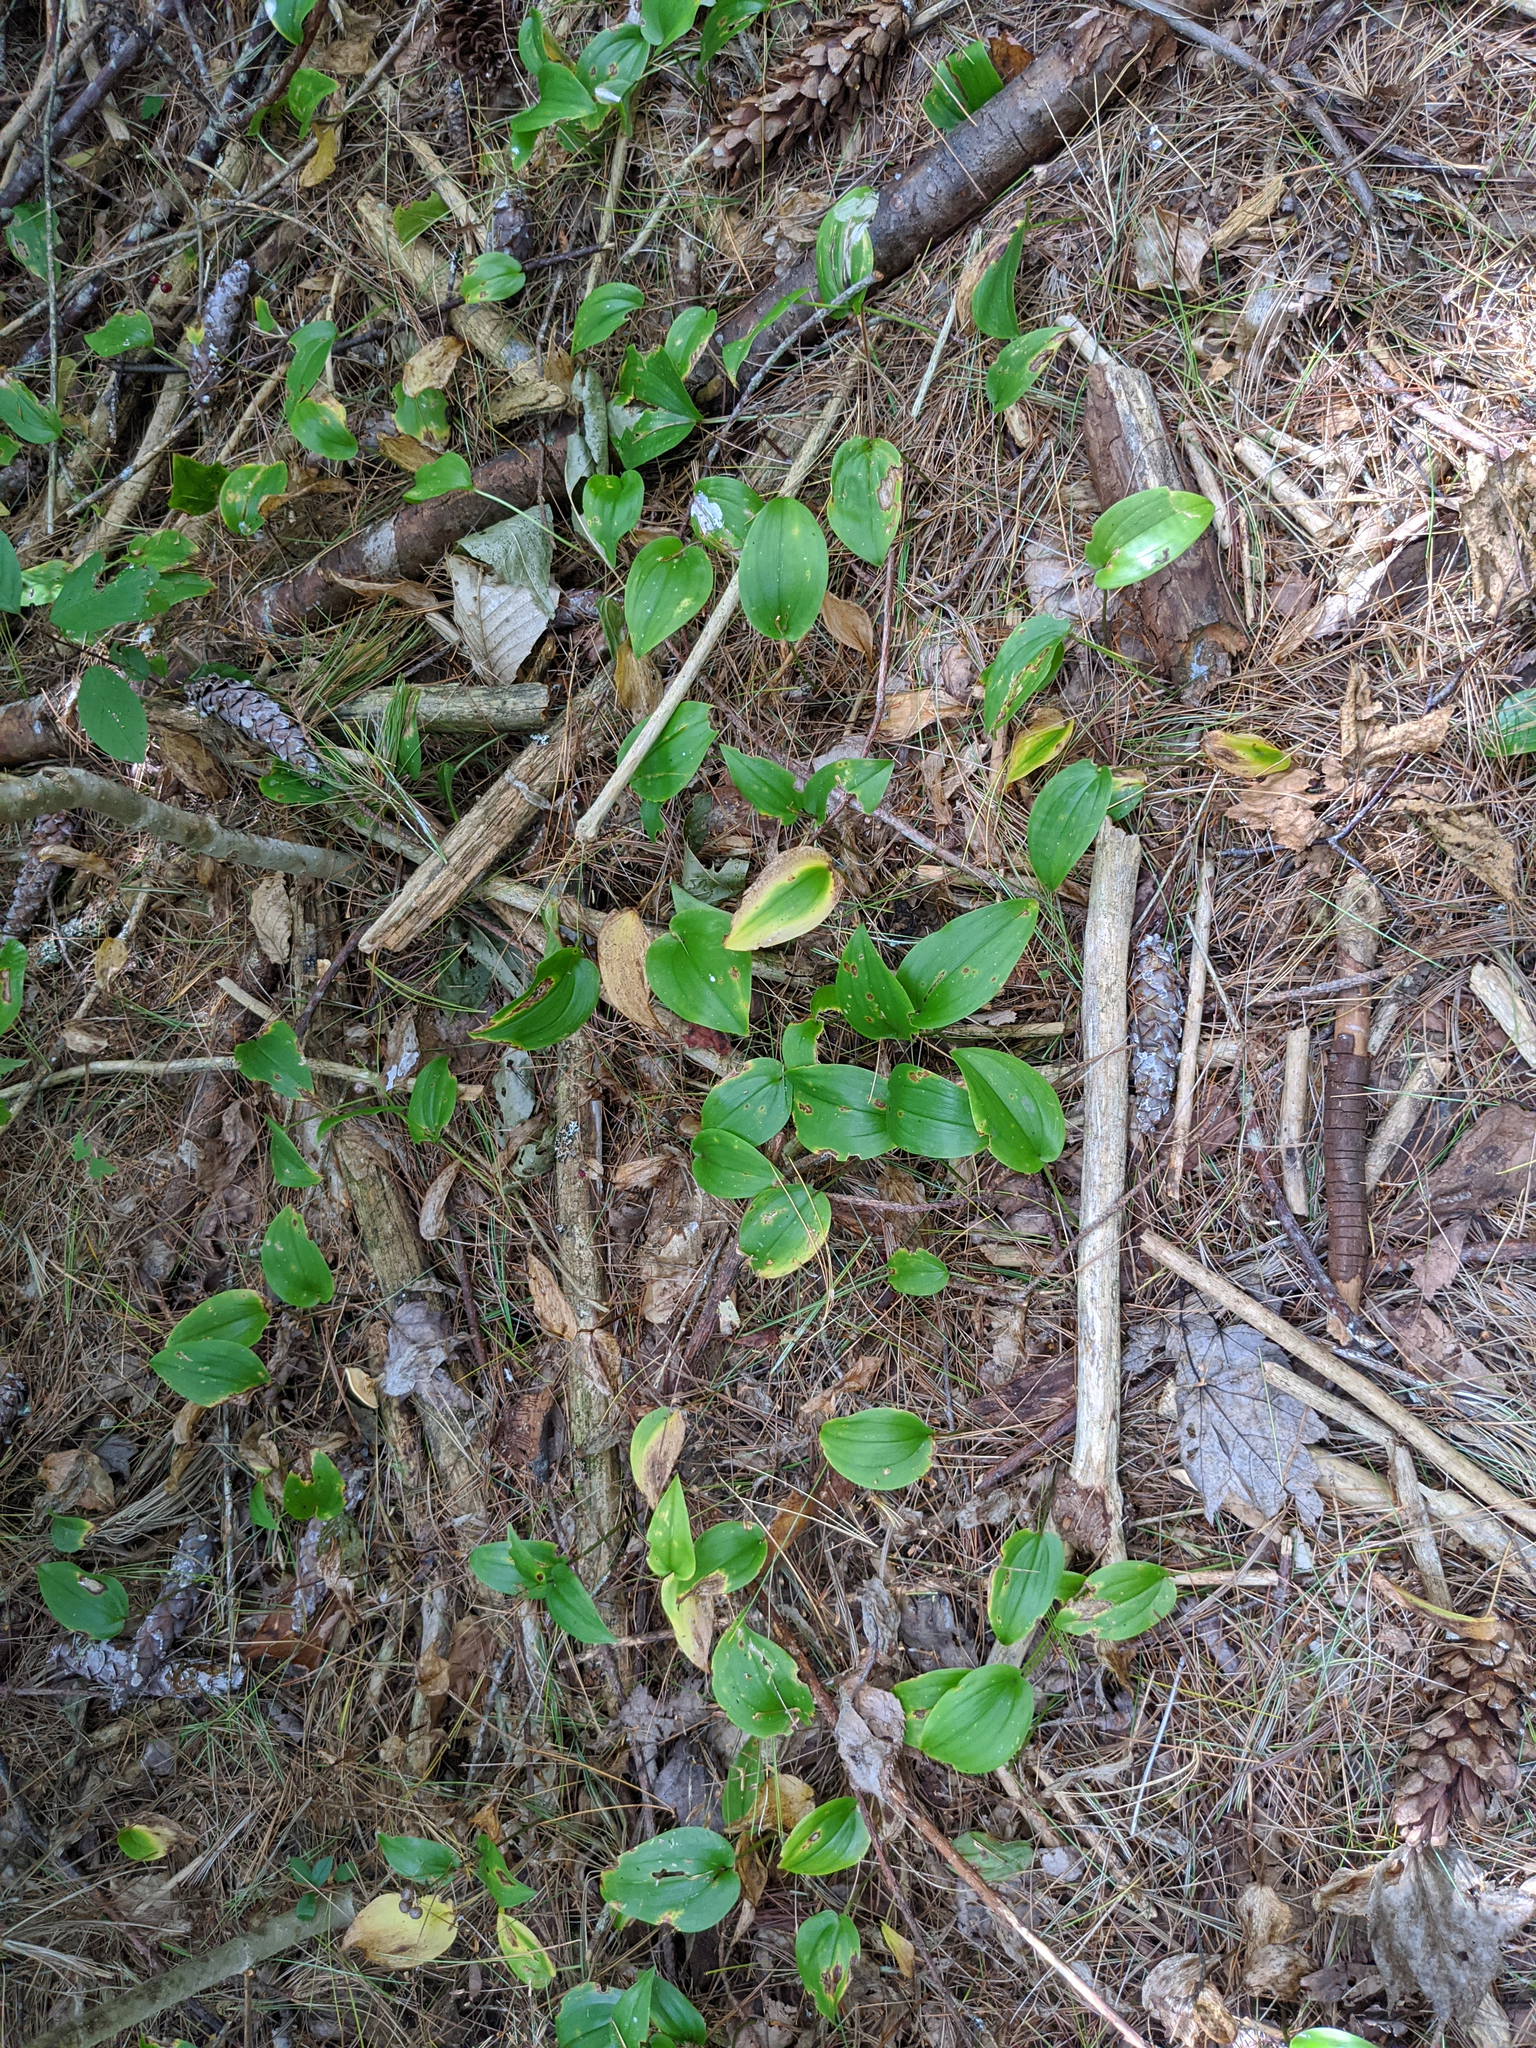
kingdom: Plantae
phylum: Tracheophyta
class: Liliopsida
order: Asparagales
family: Asparagaceae
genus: Maianthemum
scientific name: Maianthemum canadense
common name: False lily-of-the-valley
